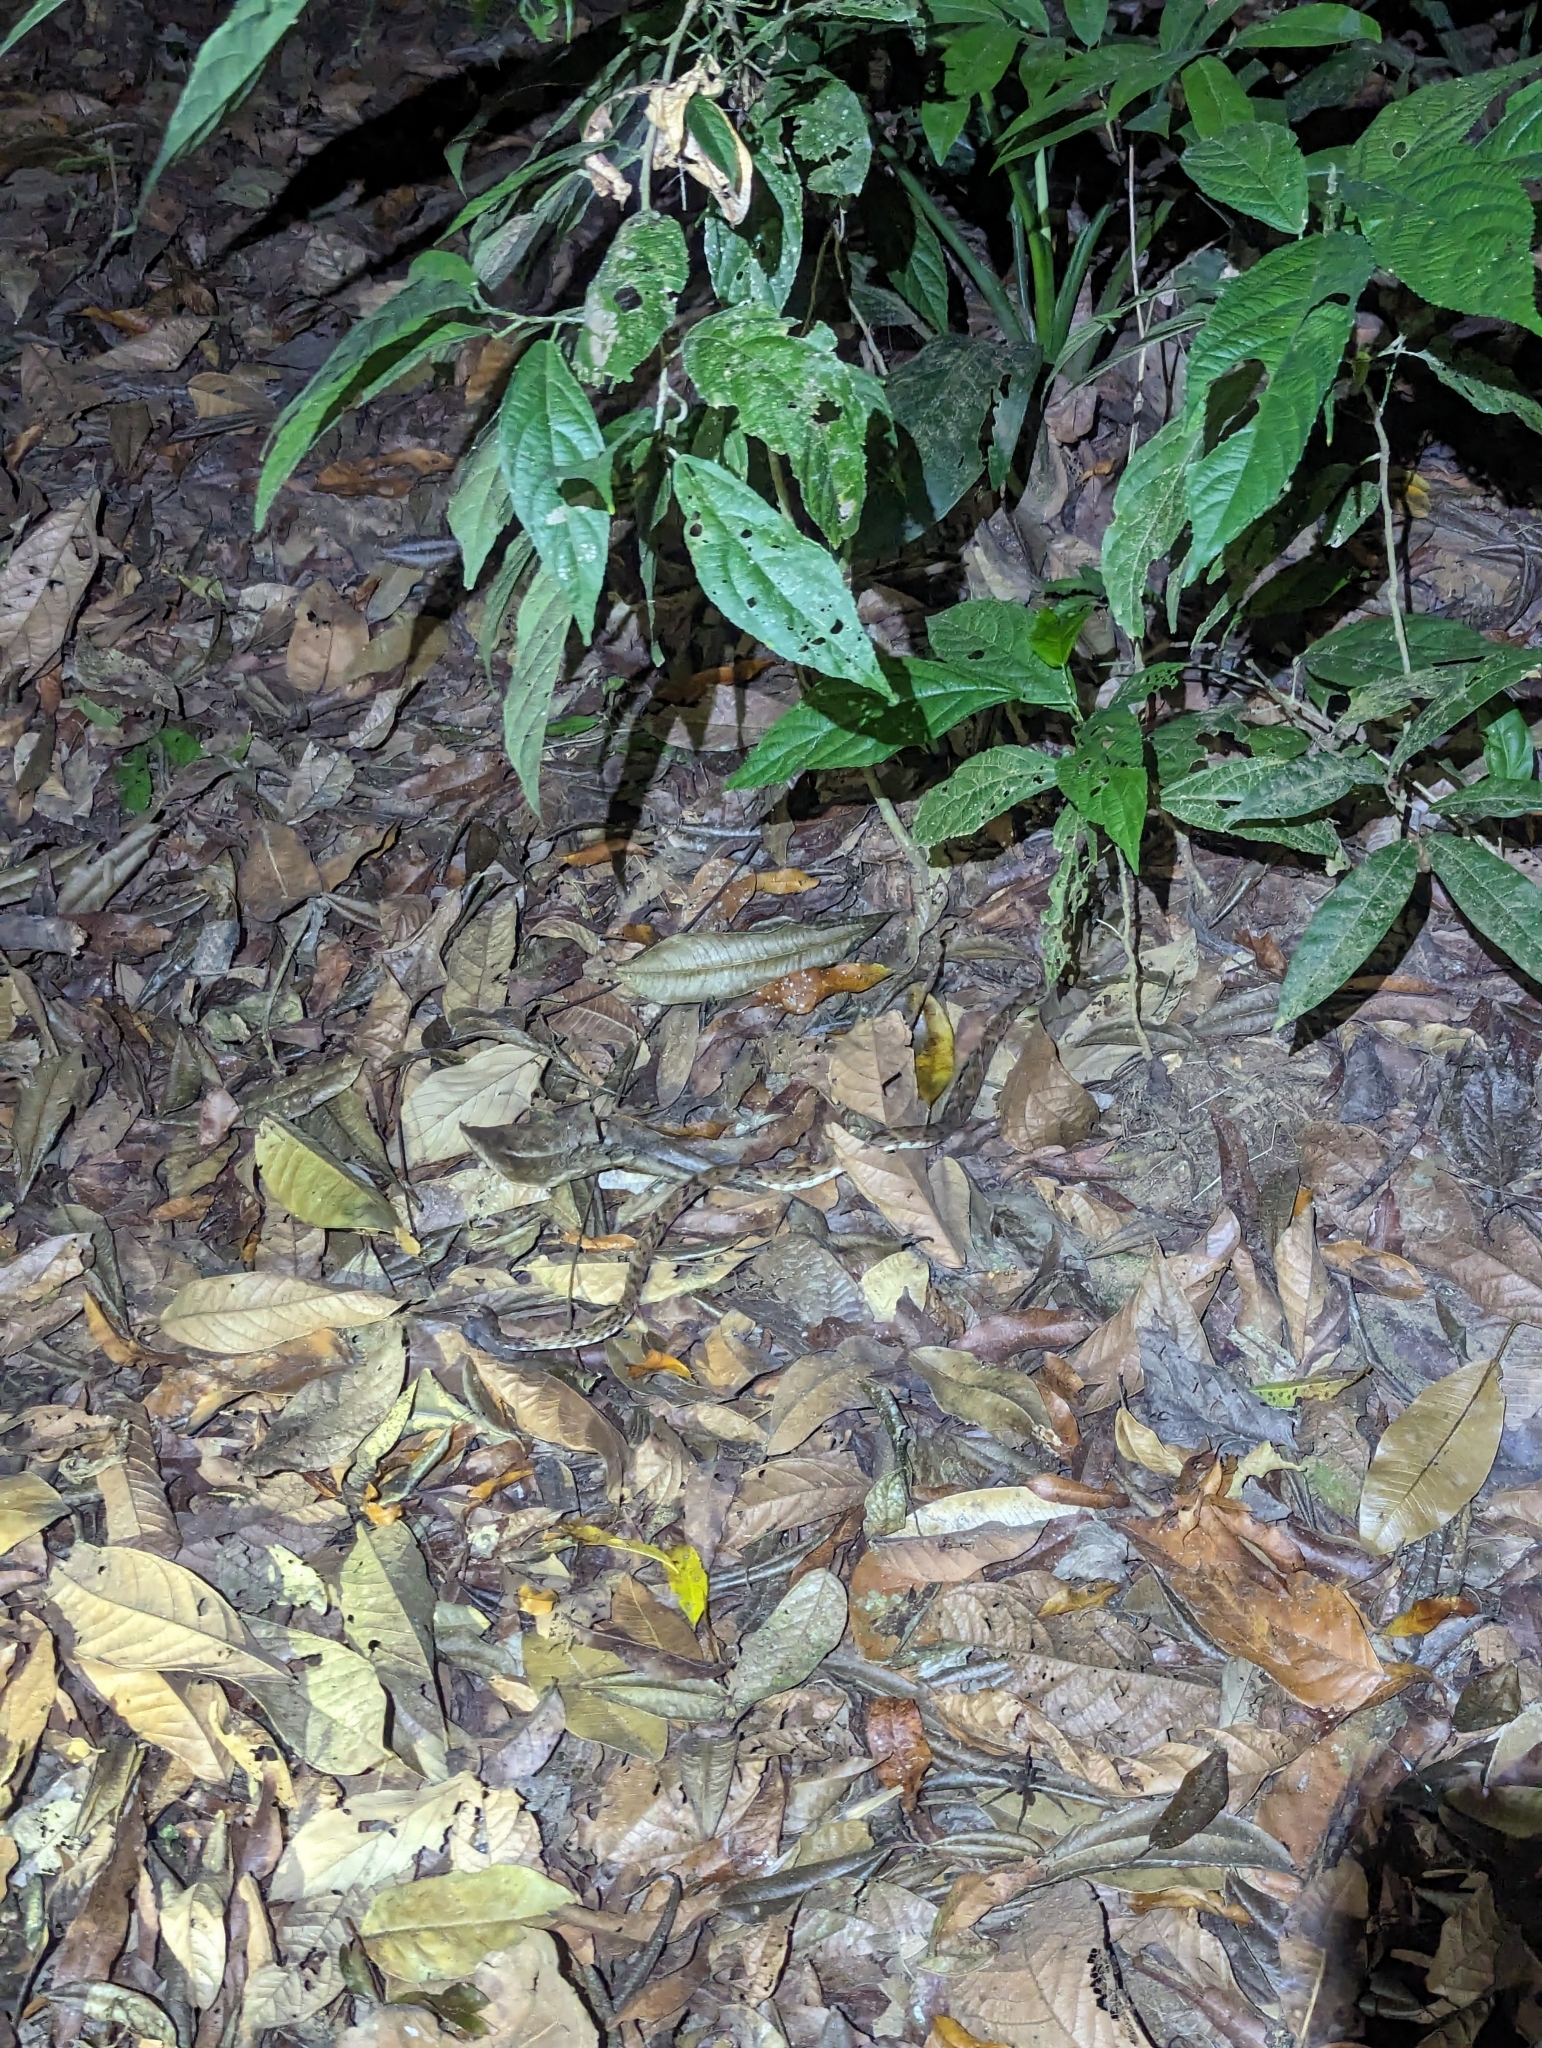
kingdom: Animalia
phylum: Chordata
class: Squamata
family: Viperidae
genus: Bothrops
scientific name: Bothrops asper
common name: Terciopelo
